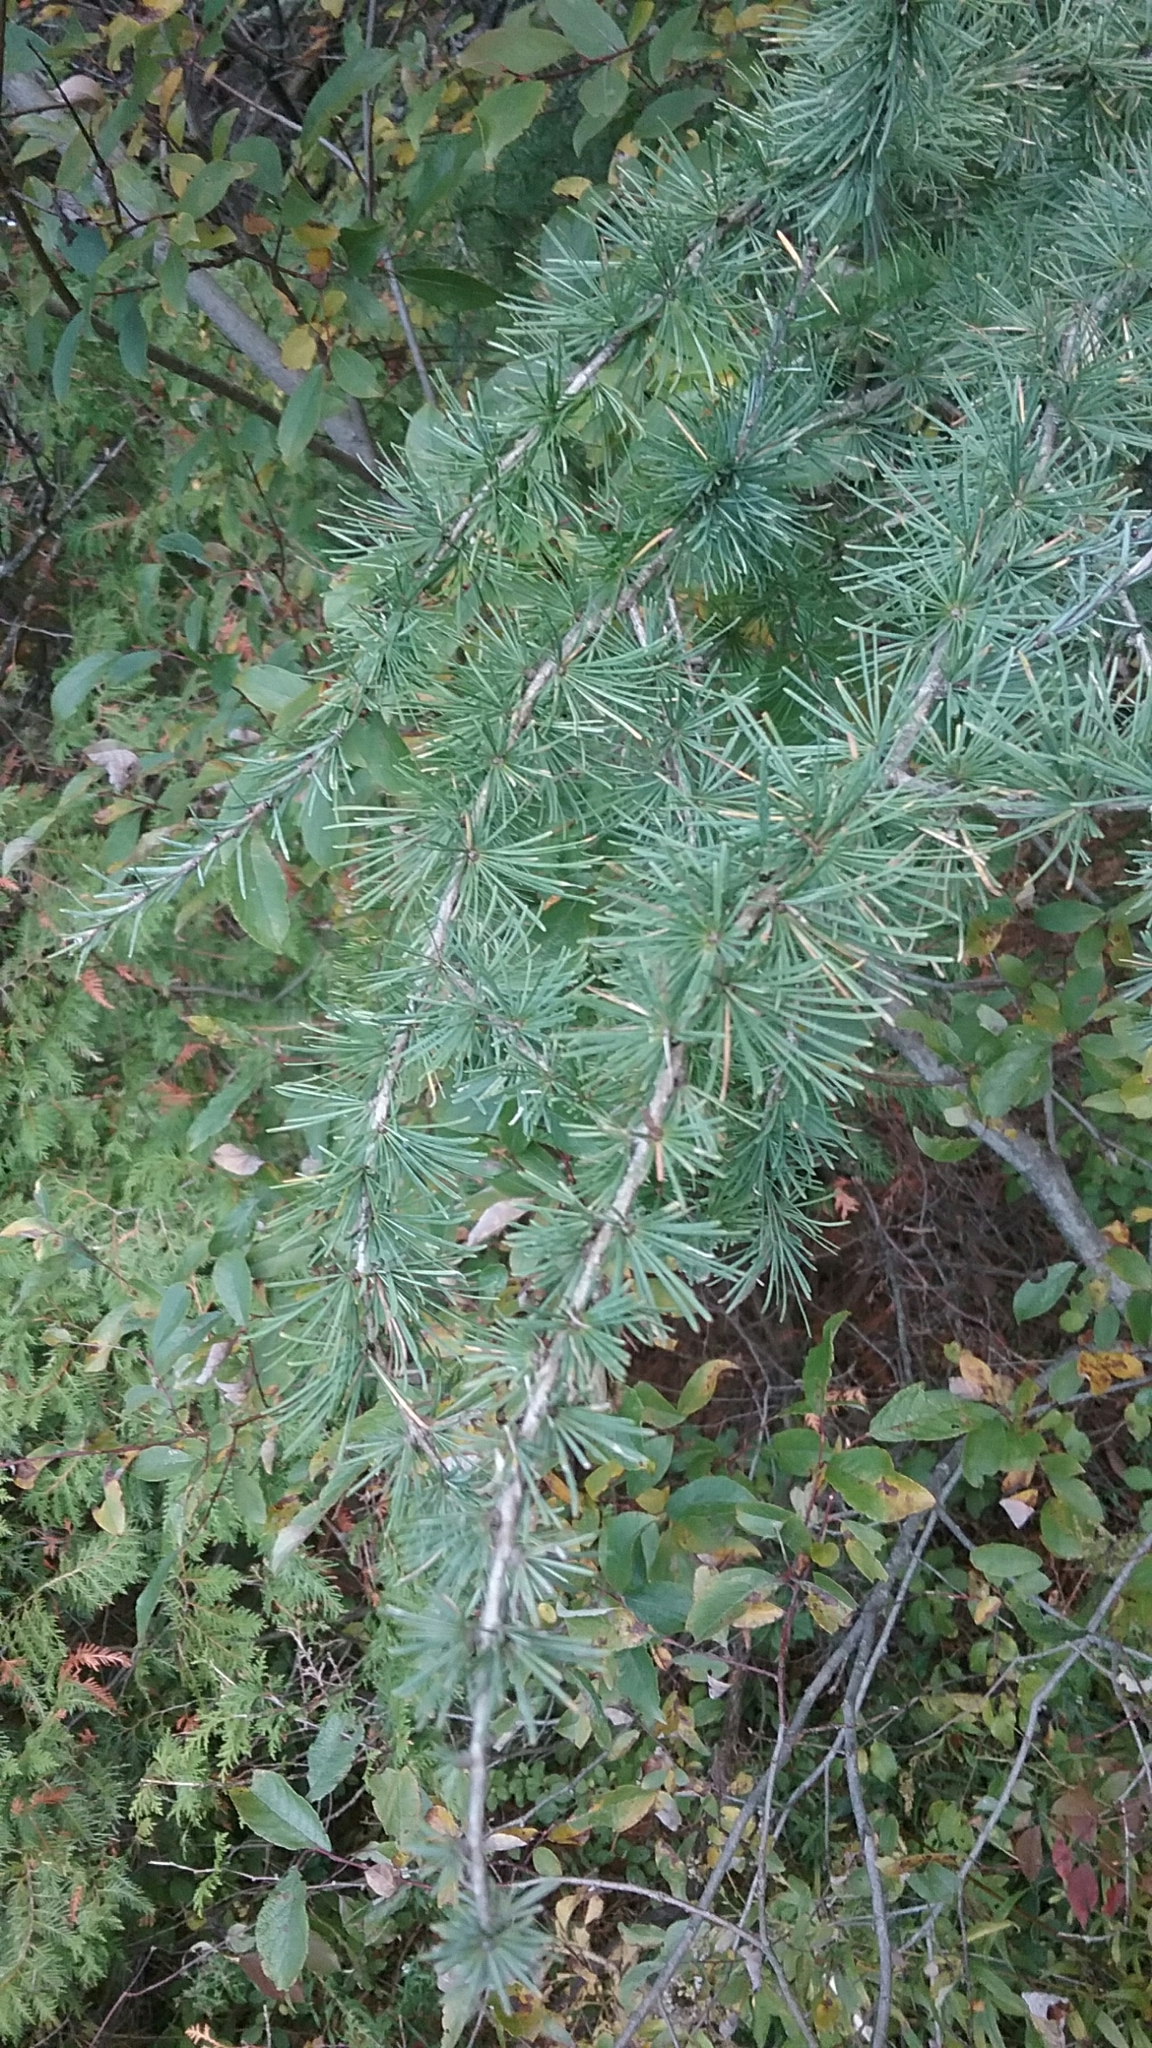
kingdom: Plantae
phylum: Tracheophyta
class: Pinopsida
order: Pinales
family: Pinaceae
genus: Larix
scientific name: Larix laricina
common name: American larch
